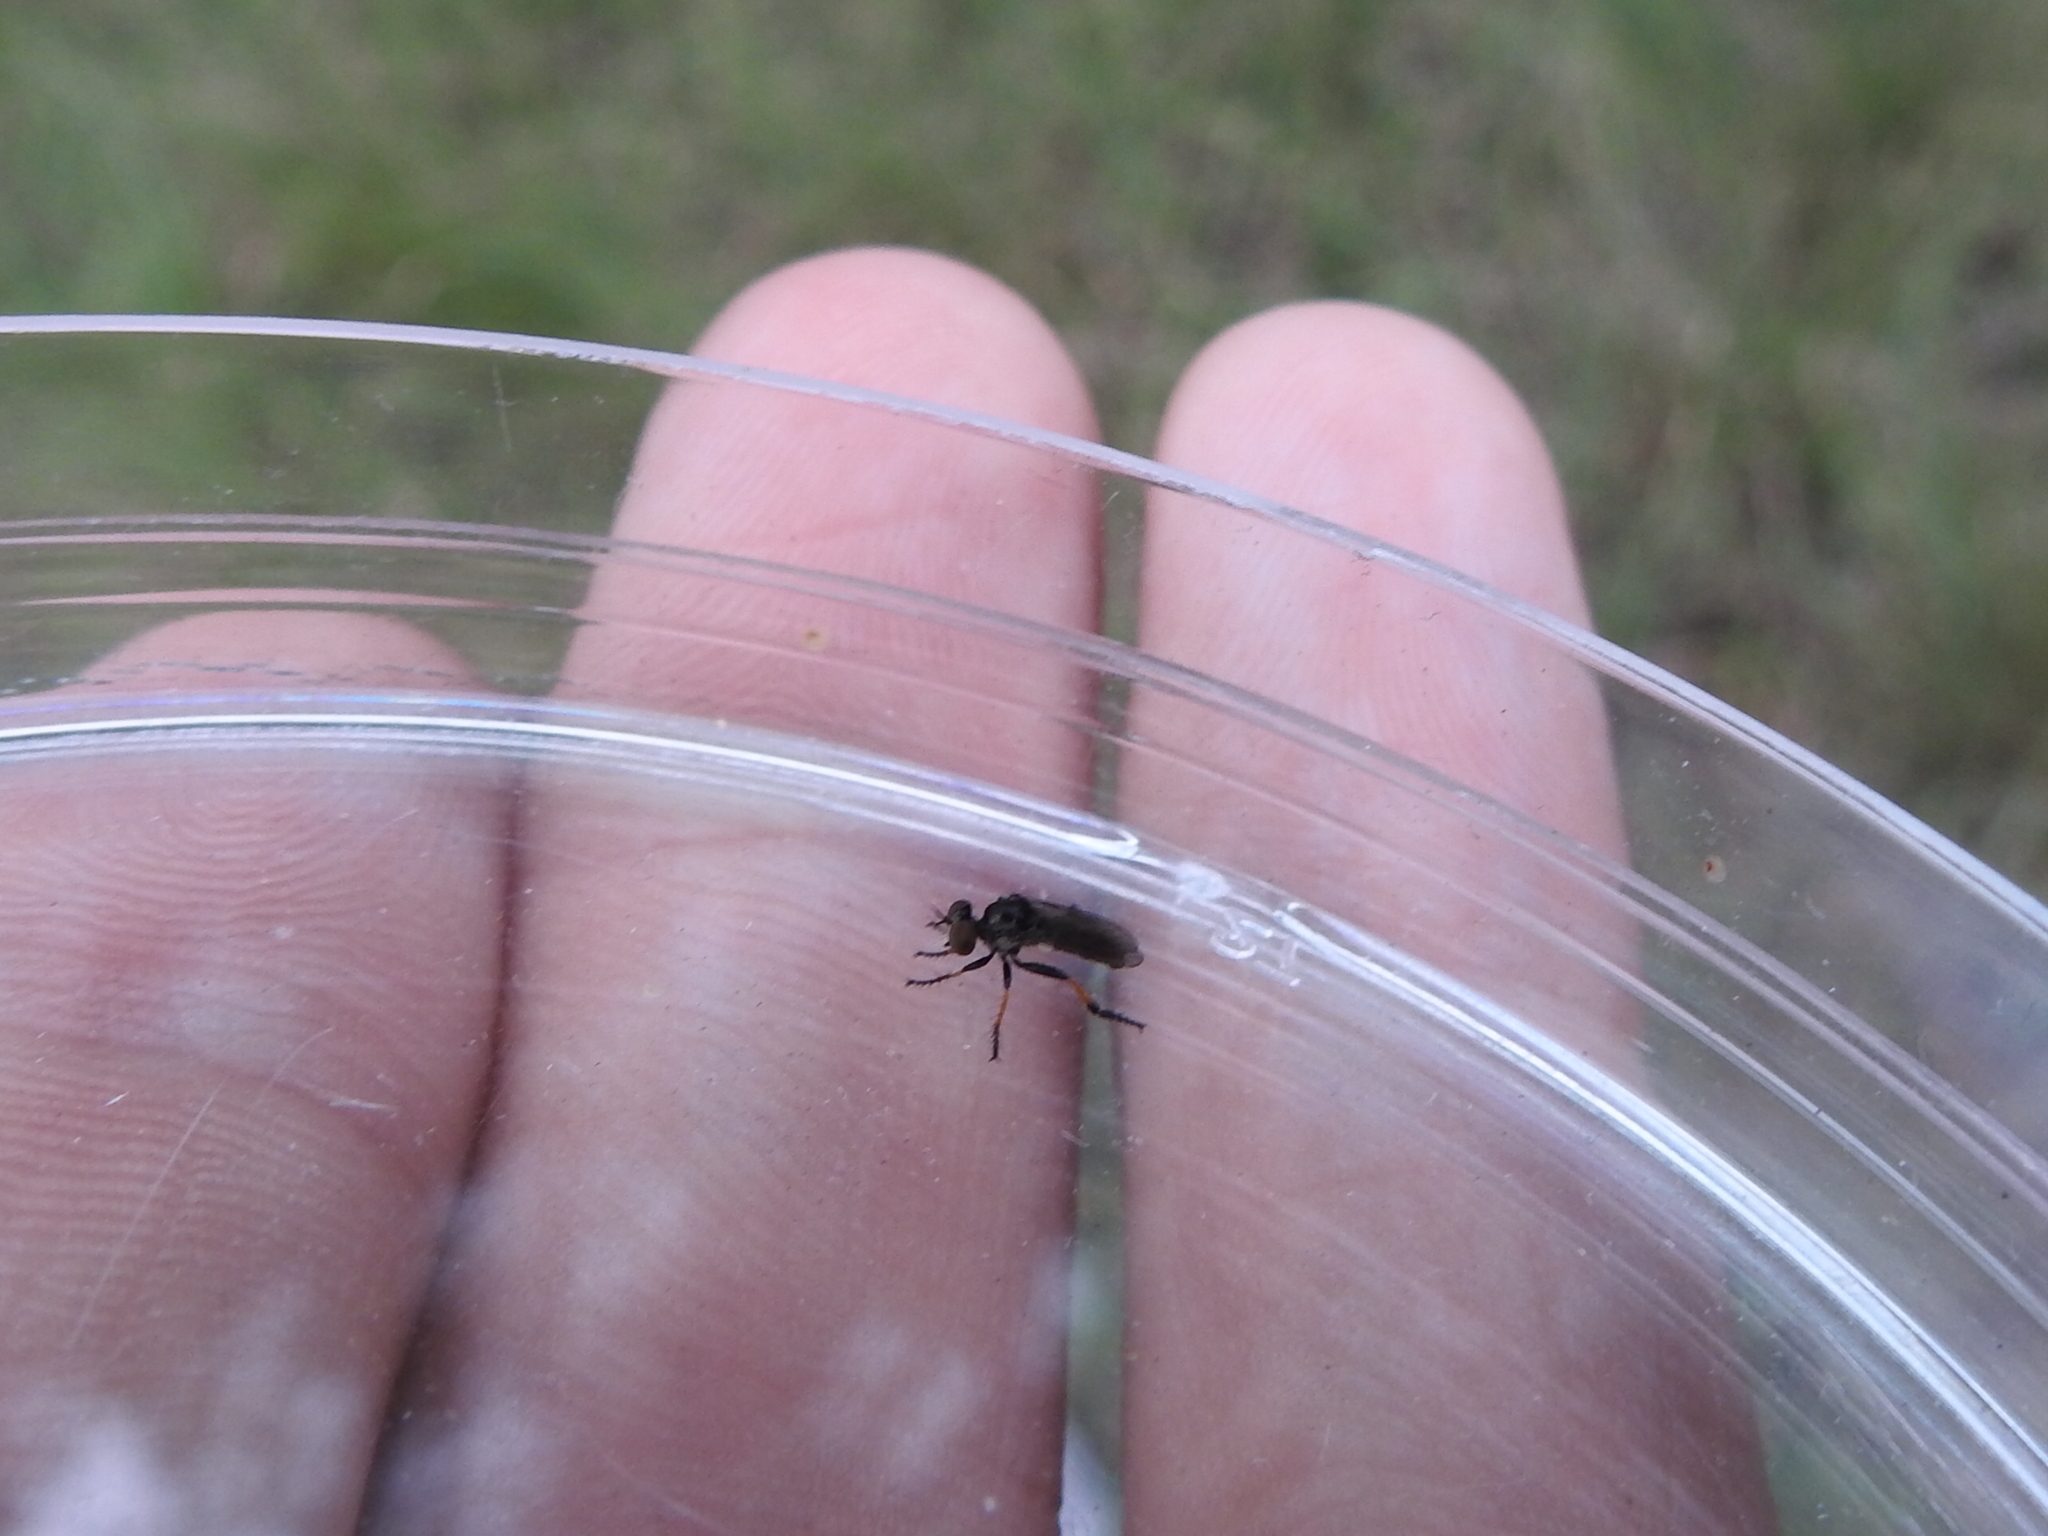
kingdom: Animalia
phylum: Arthropoda
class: Insecta
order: Diptera
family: Asilidae
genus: Hadrokolos
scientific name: Hadrokolos texanus
